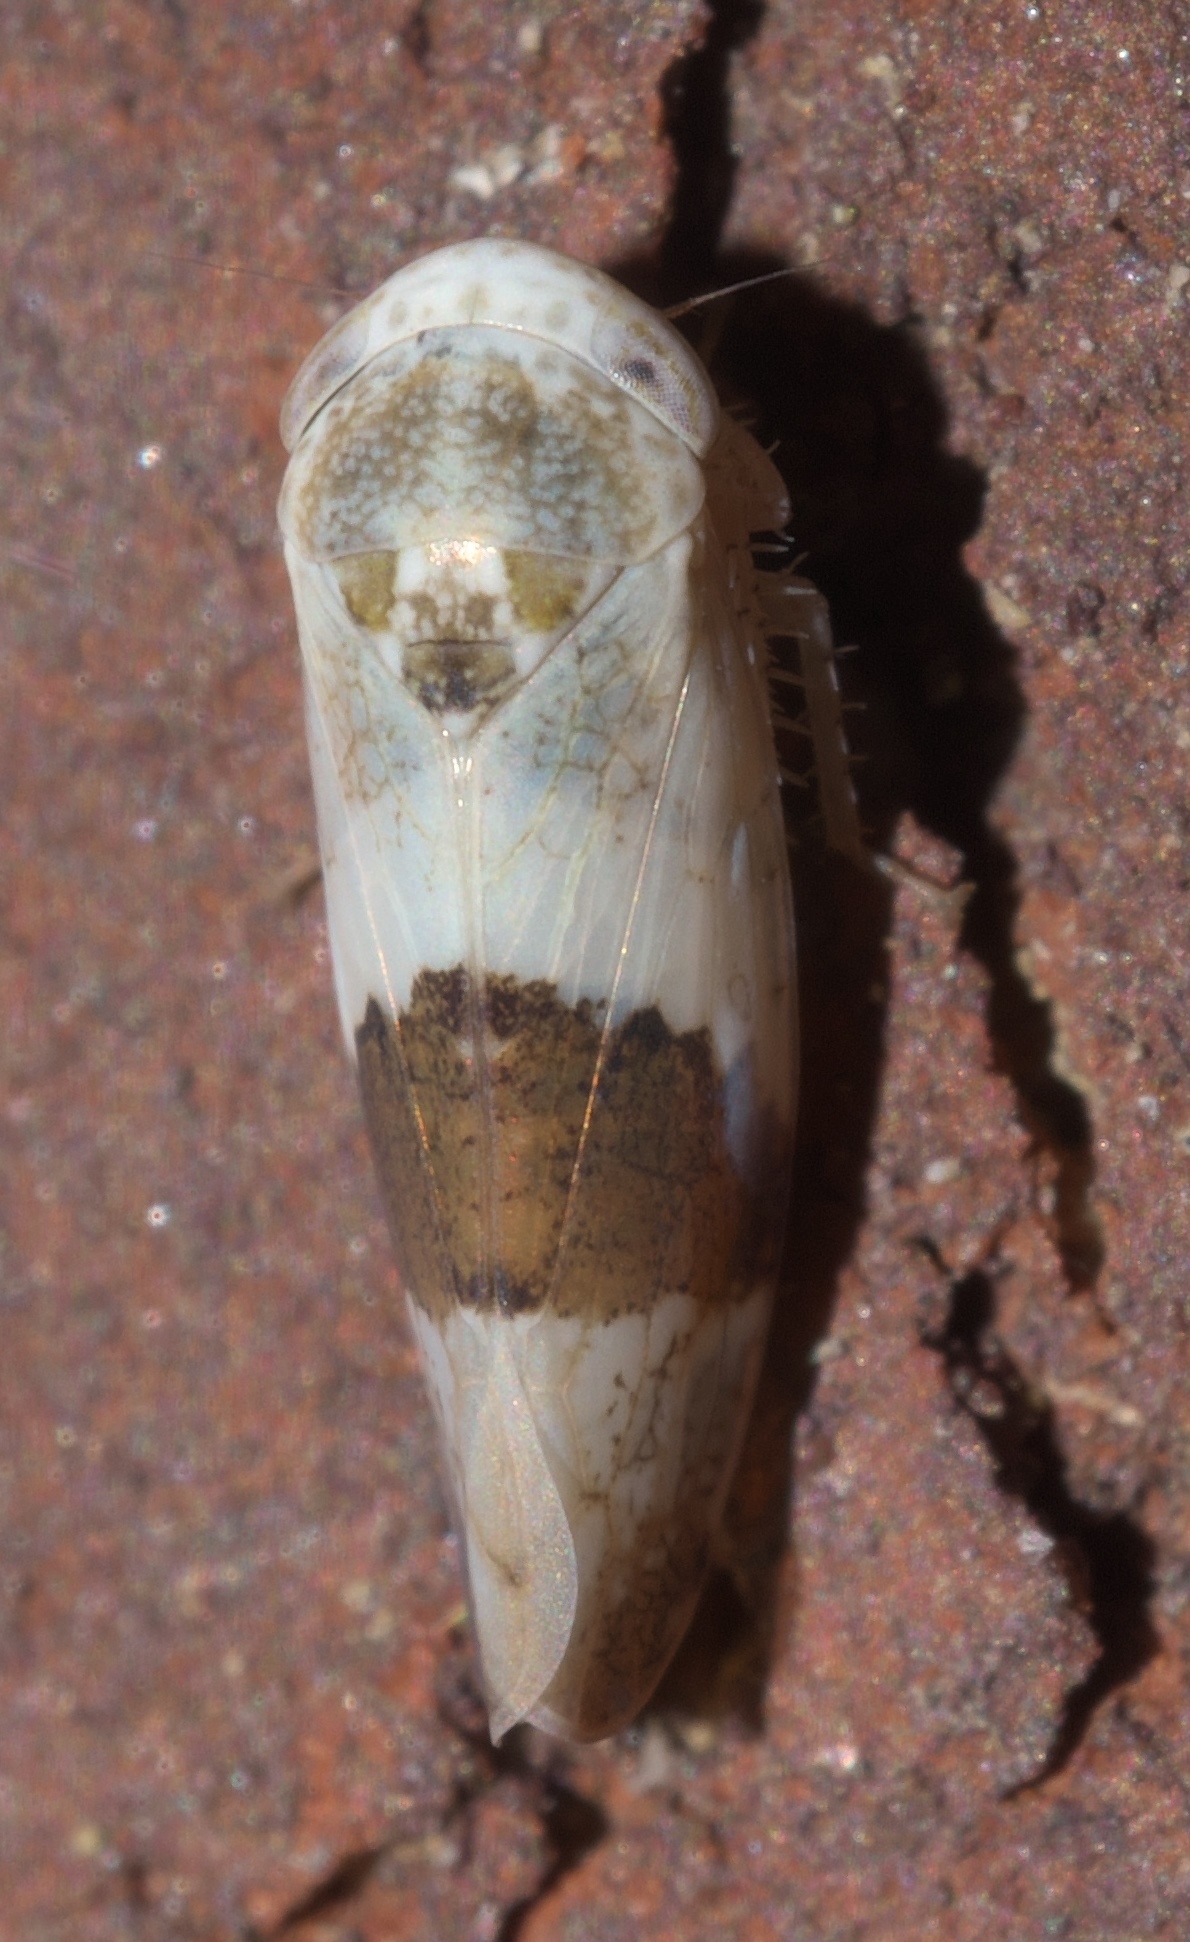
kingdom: Animalia
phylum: Arthropoda
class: Insecta
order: Hemiptera
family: Cicadellidae
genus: Norvellina
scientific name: Norvellina seminuda
